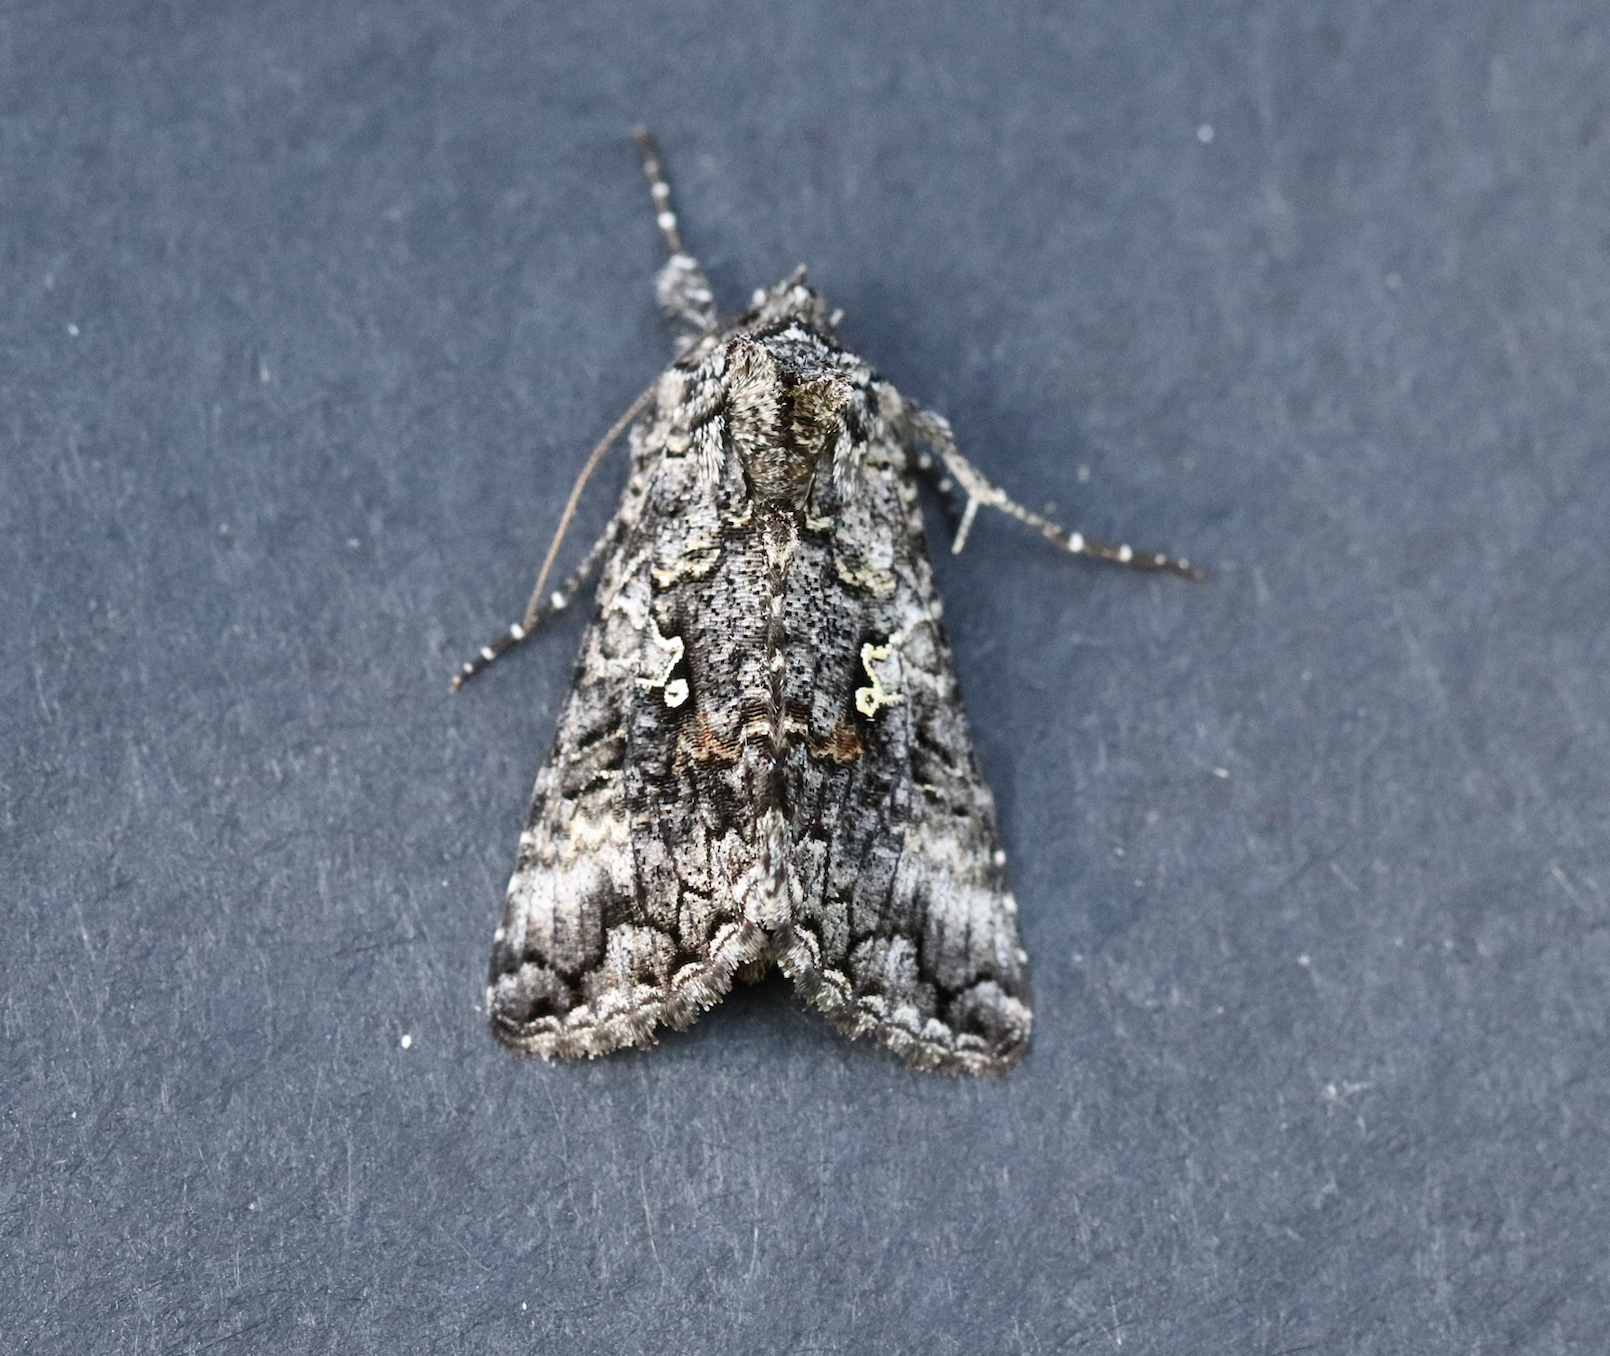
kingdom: Animalia
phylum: Arthropoda
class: Insecta
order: Lepidoptera
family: Noctuidae
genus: Syngrapha
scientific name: Syngrapha octoscripta
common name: Dusky silver y moth
